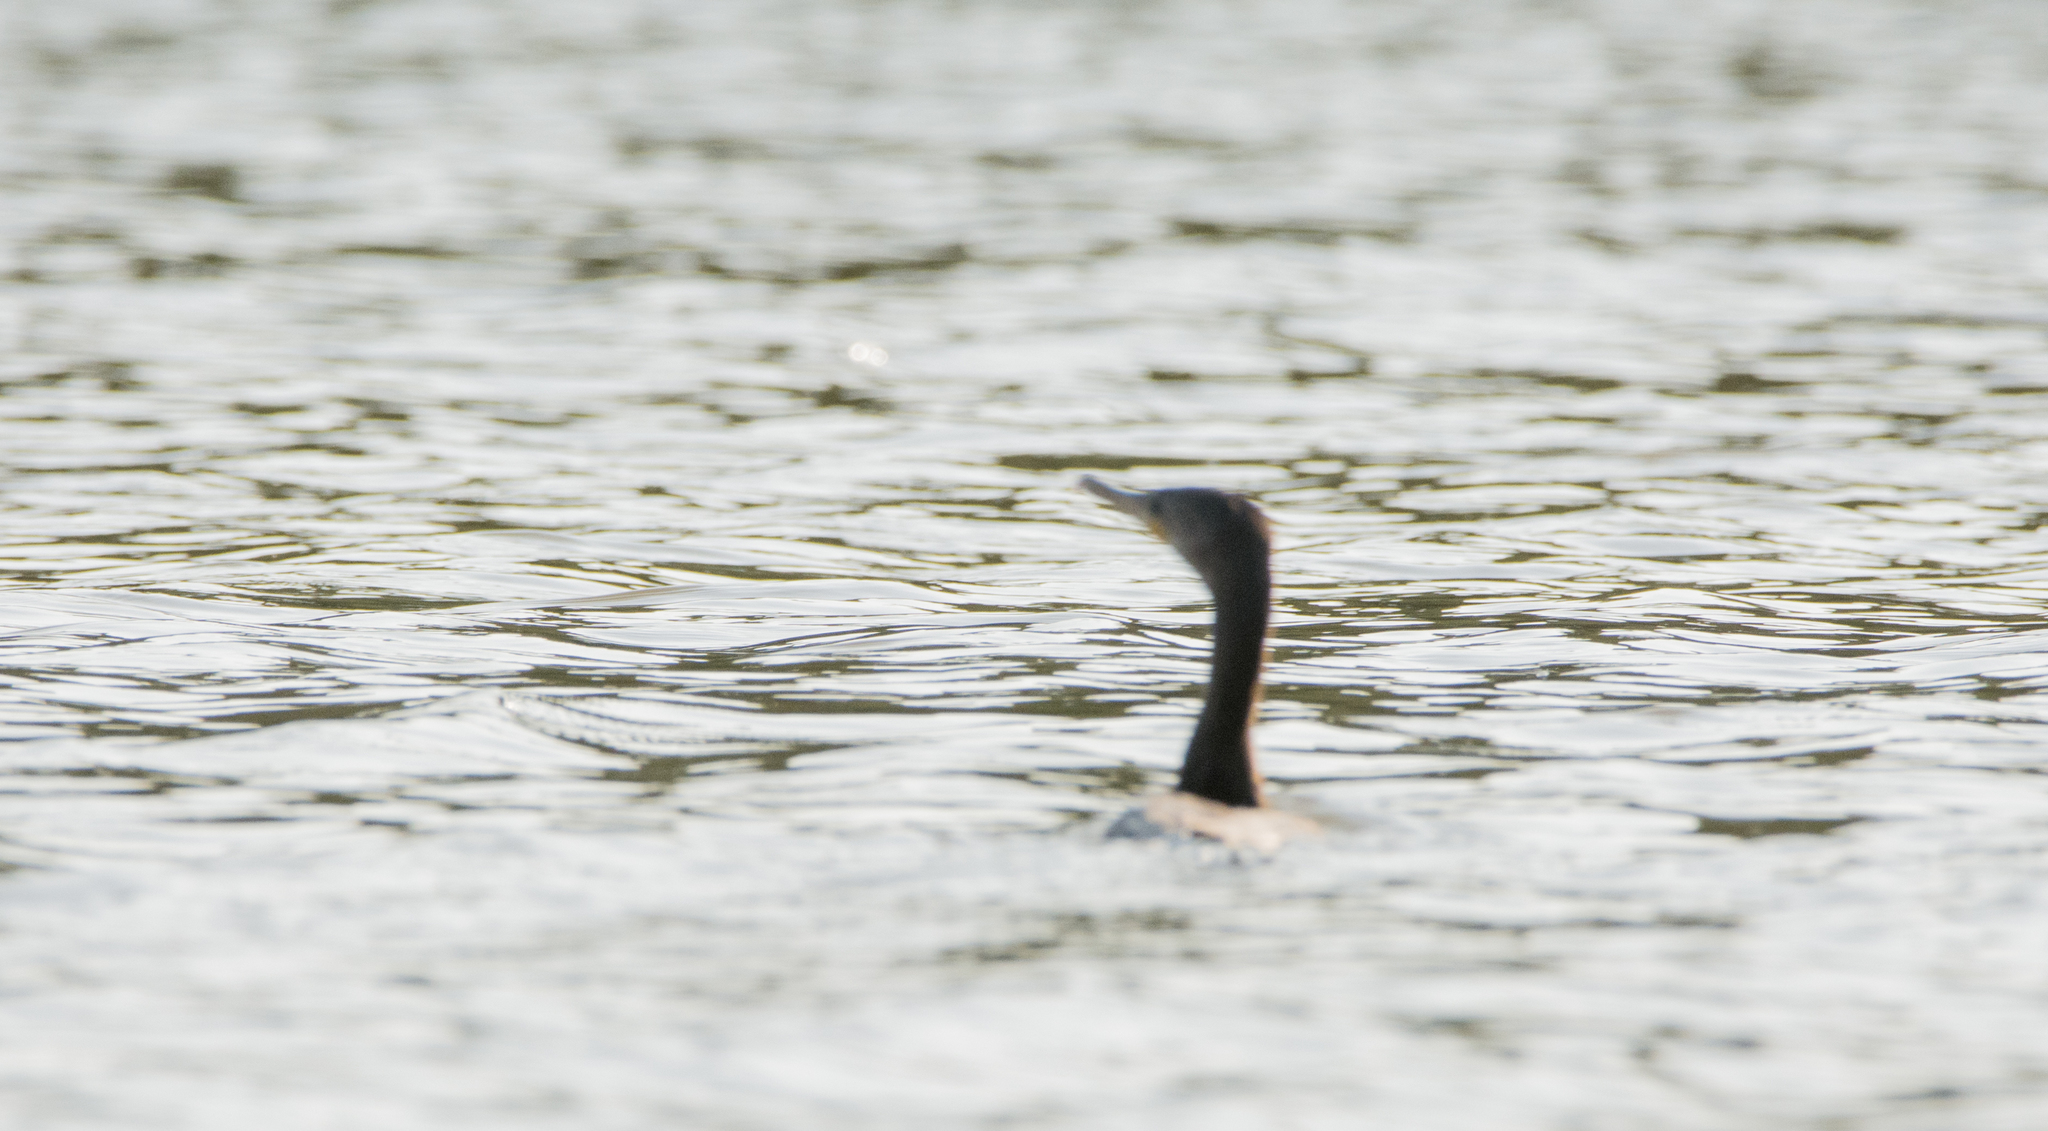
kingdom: Animalia
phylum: Chordata
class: Aves
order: Suliformes
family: Phalacrocoracidae
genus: Phalacrocorax
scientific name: Phalacrocorax brasilianus
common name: Neotropic cormorant
